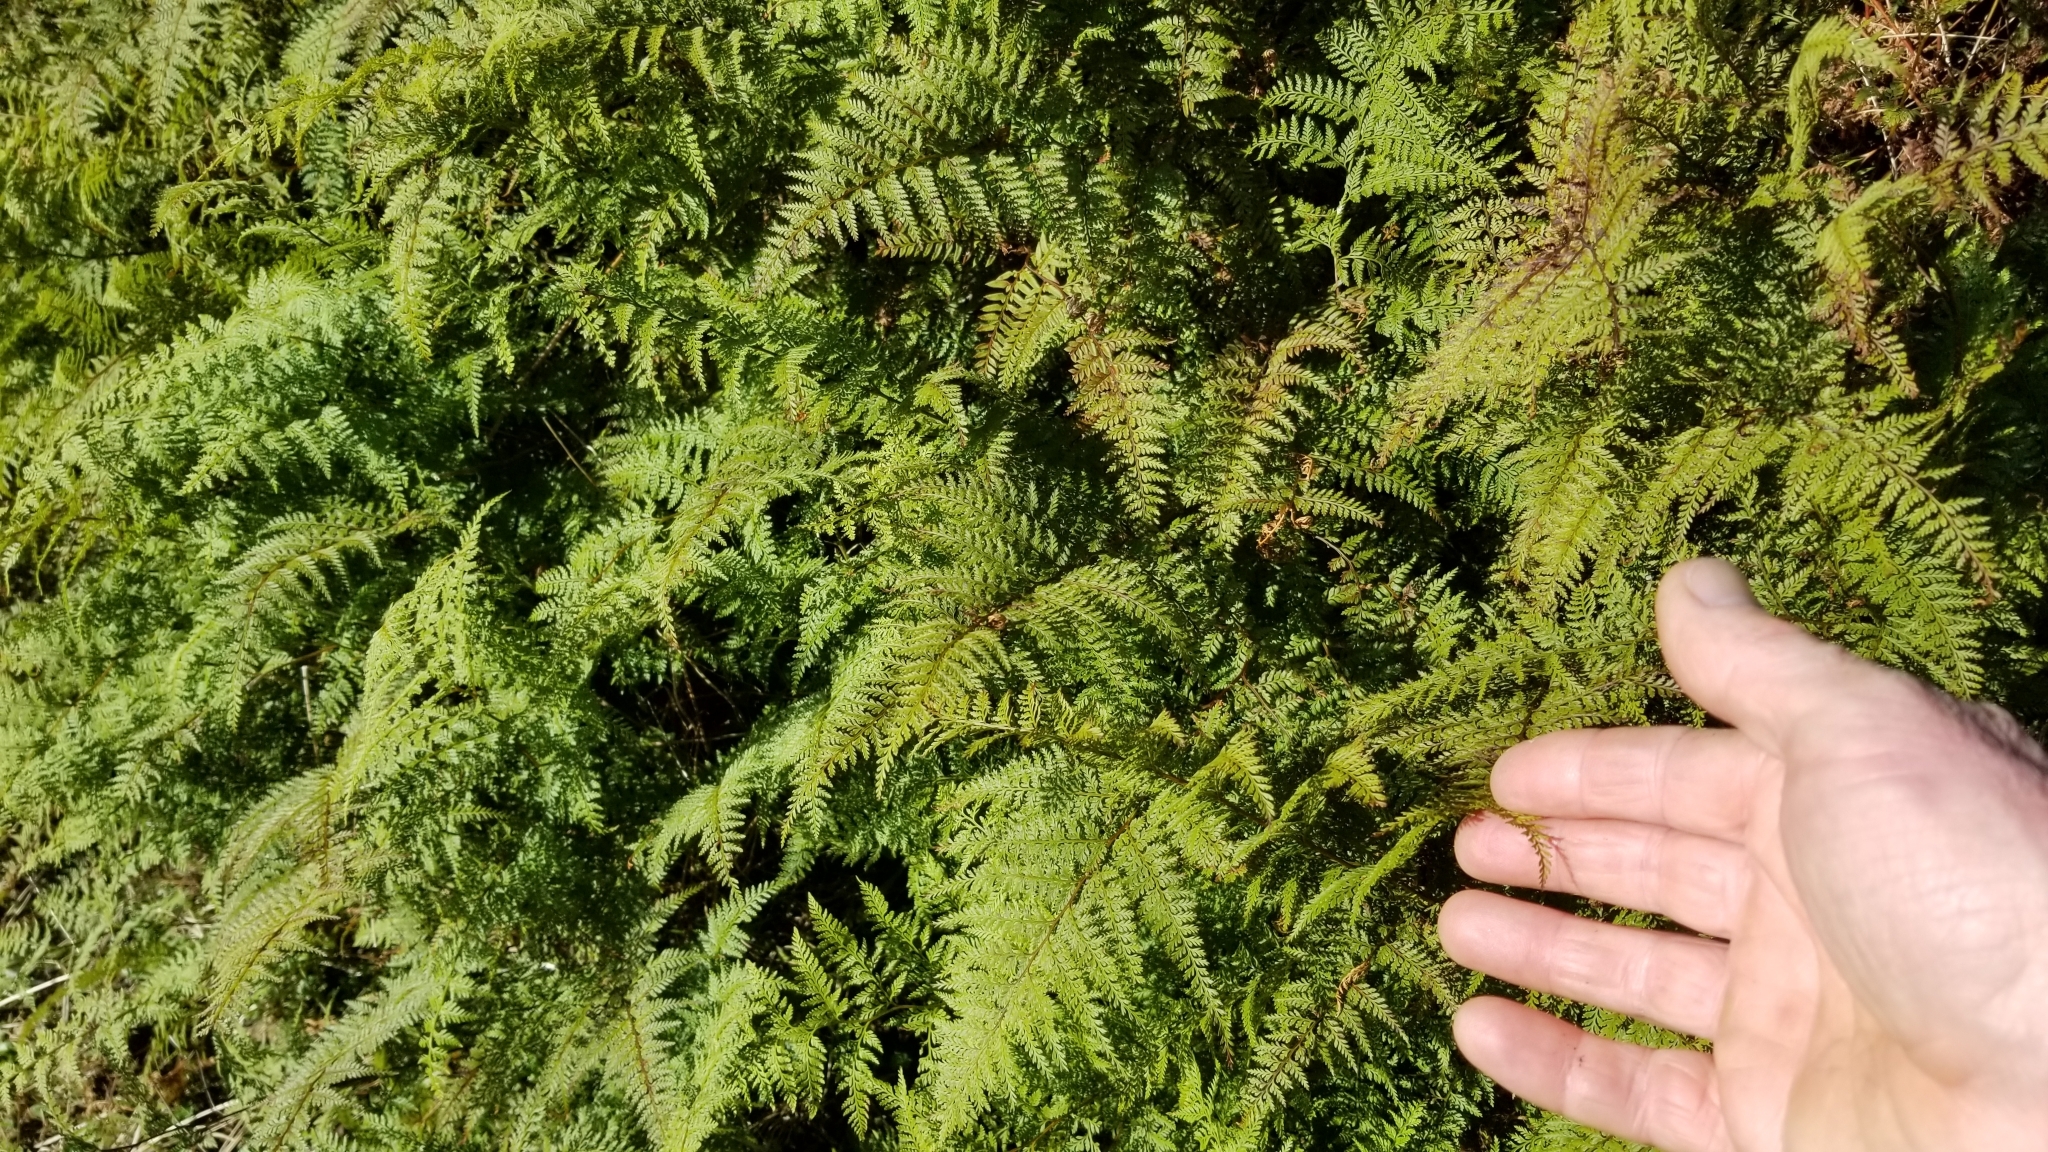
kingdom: Plantae
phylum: Tracheophyta
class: Polypodiopsida
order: Polypodiales
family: Dennstaedtiaceae
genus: Paesia
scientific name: Paesia scaberula
